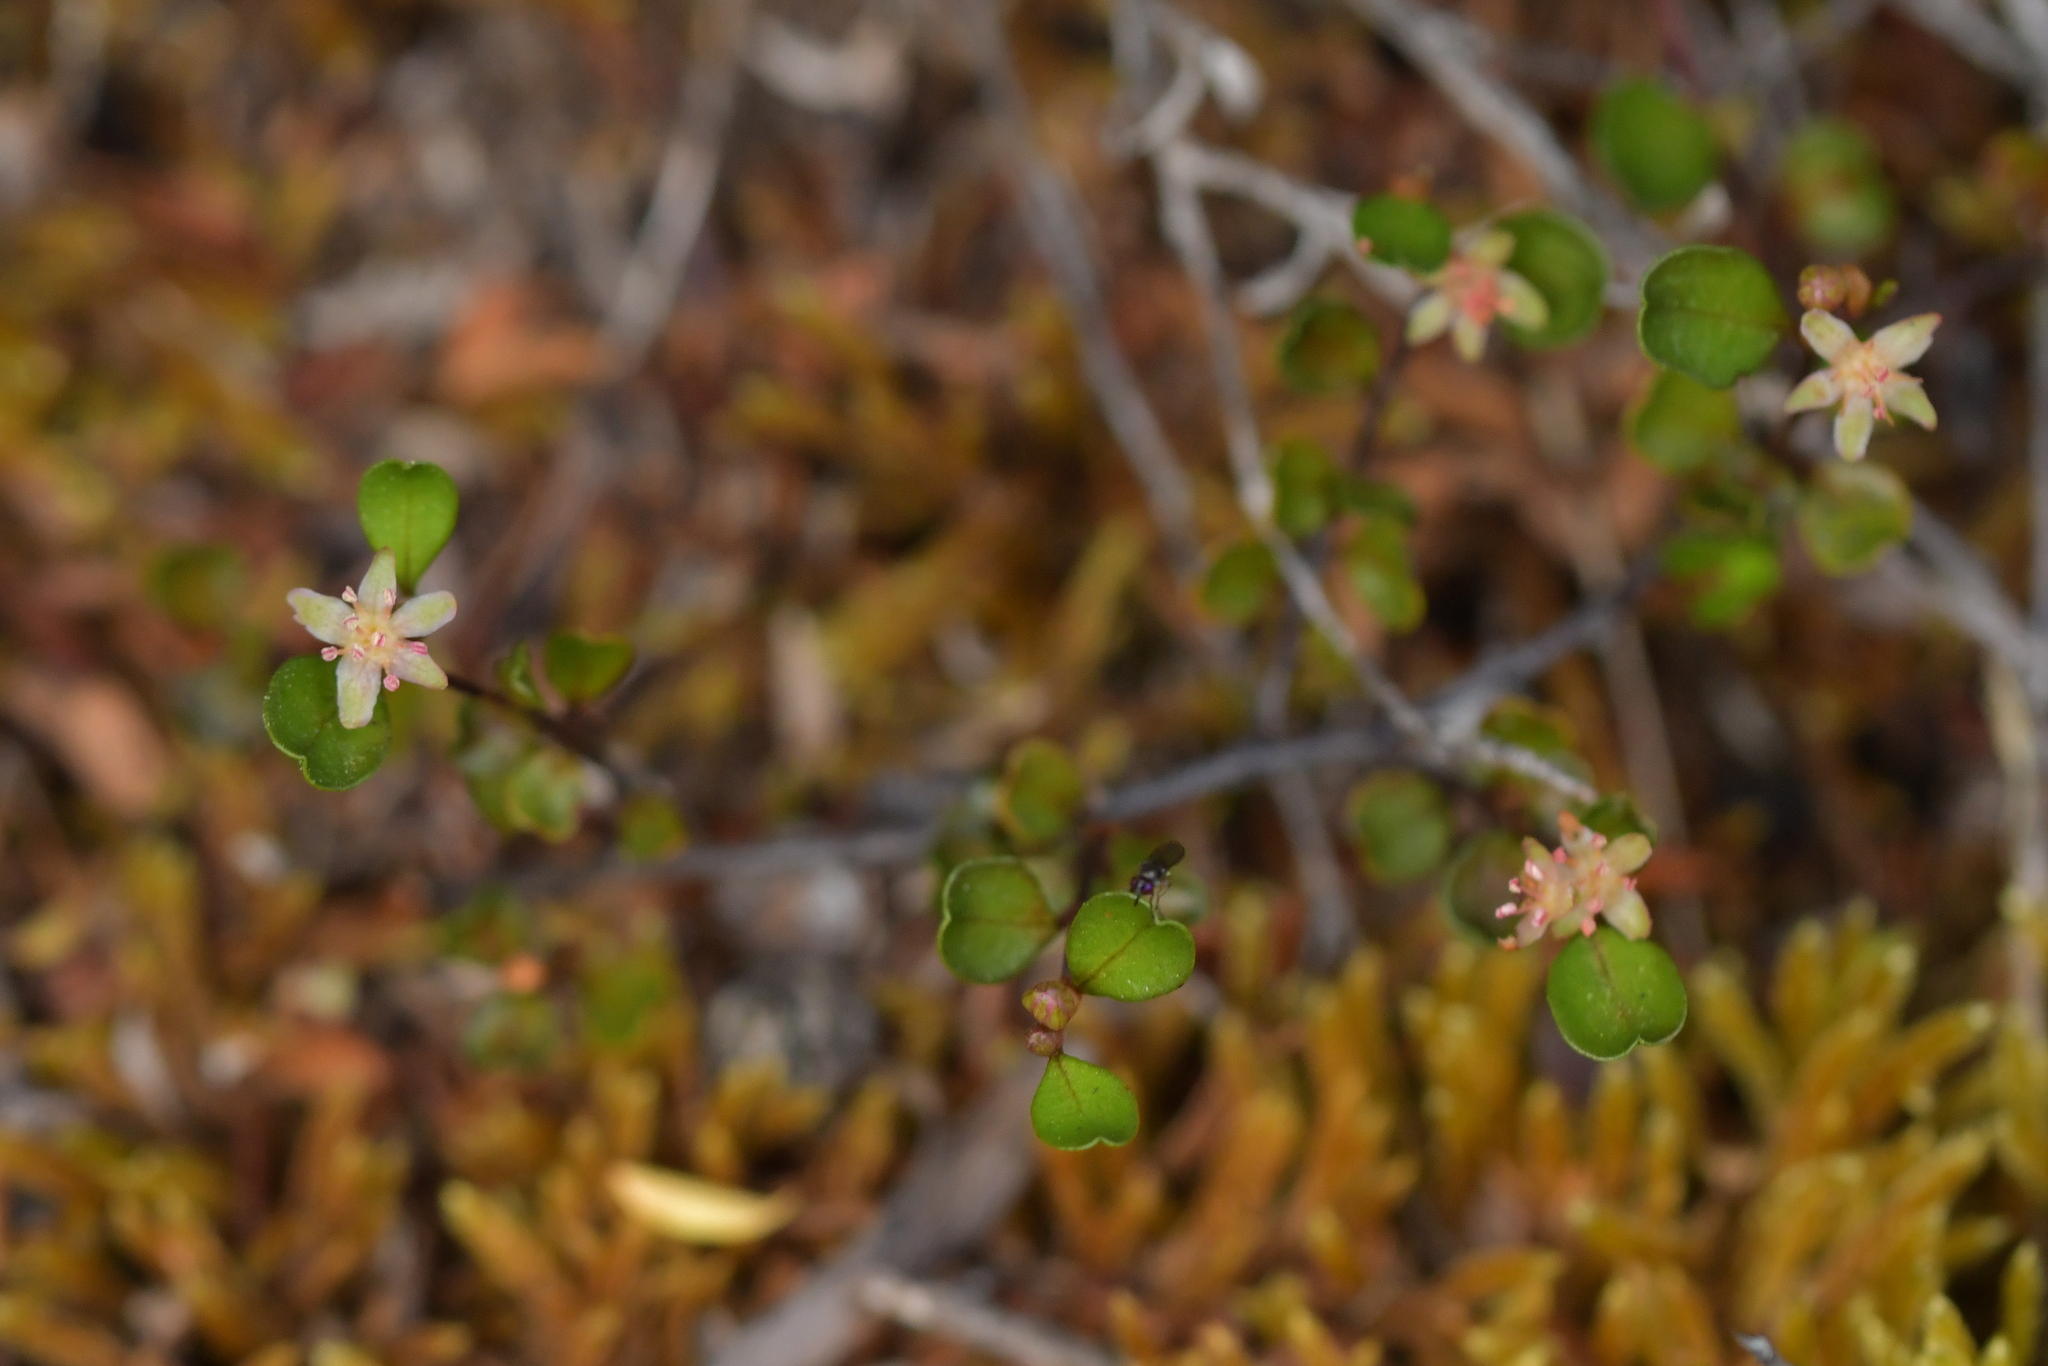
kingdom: Plantae
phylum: Tracheophyta
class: Magnoliopsida
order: Caryophyllales
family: Polygonaceae
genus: Muehlenbeckia
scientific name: Muehlenbeckia axillaris
